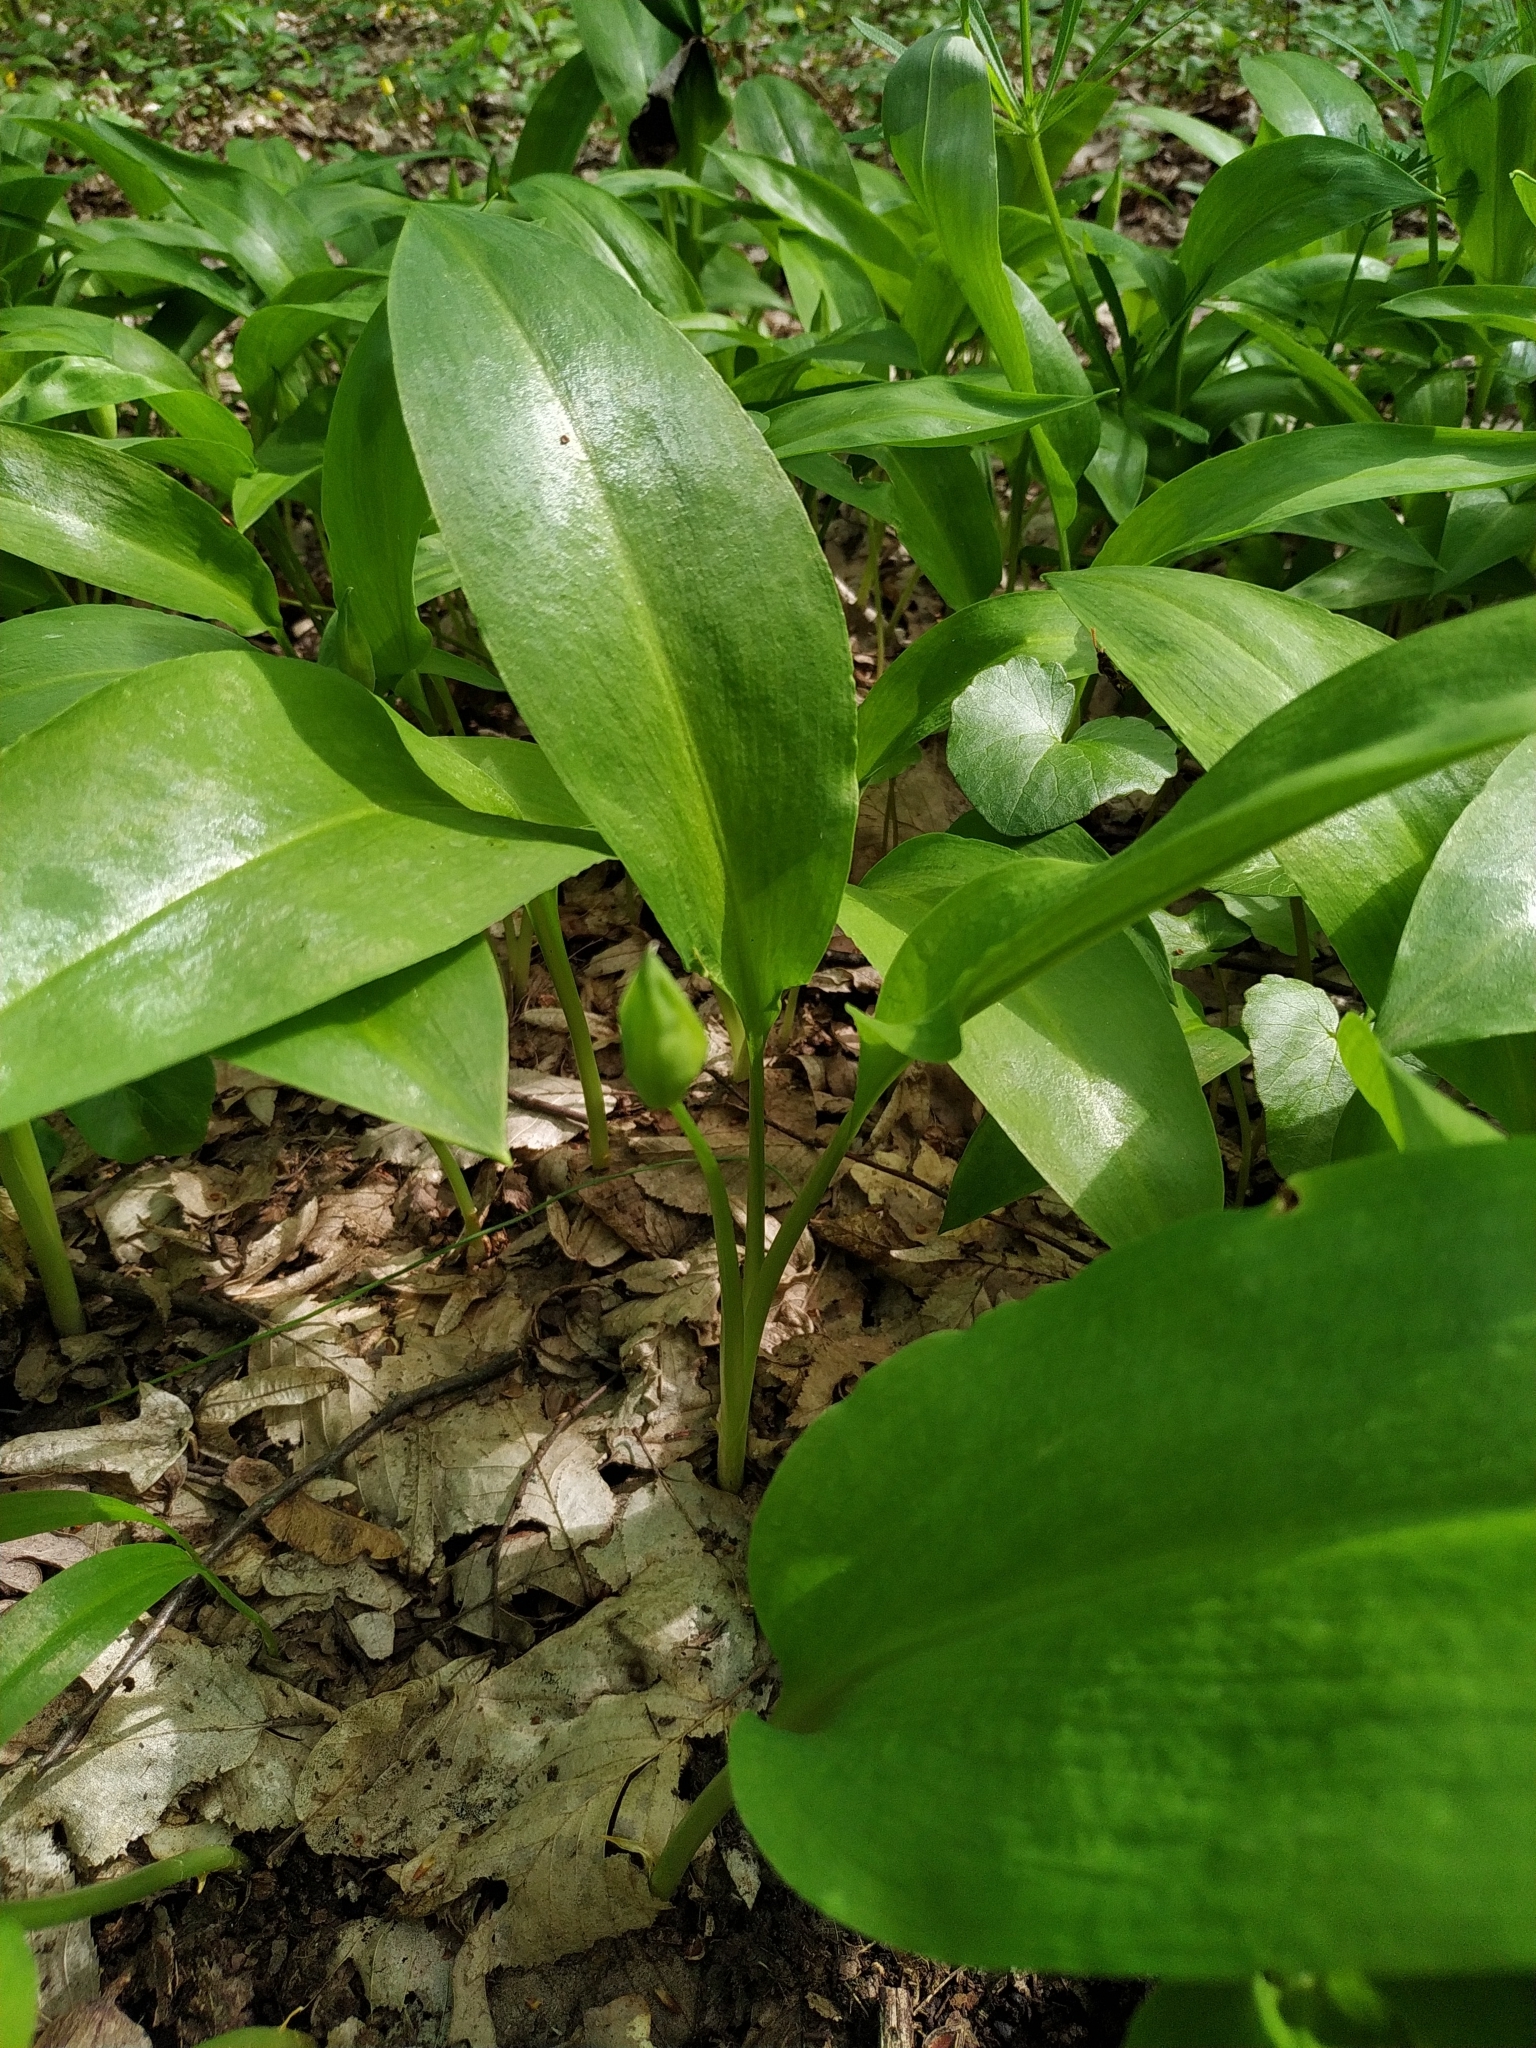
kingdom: Plantae
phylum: Tracheophyta
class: Liliopsida
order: Asparagales
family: Amaryllidaceae
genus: Allium
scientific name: Allium ursinum
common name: Ramsons
